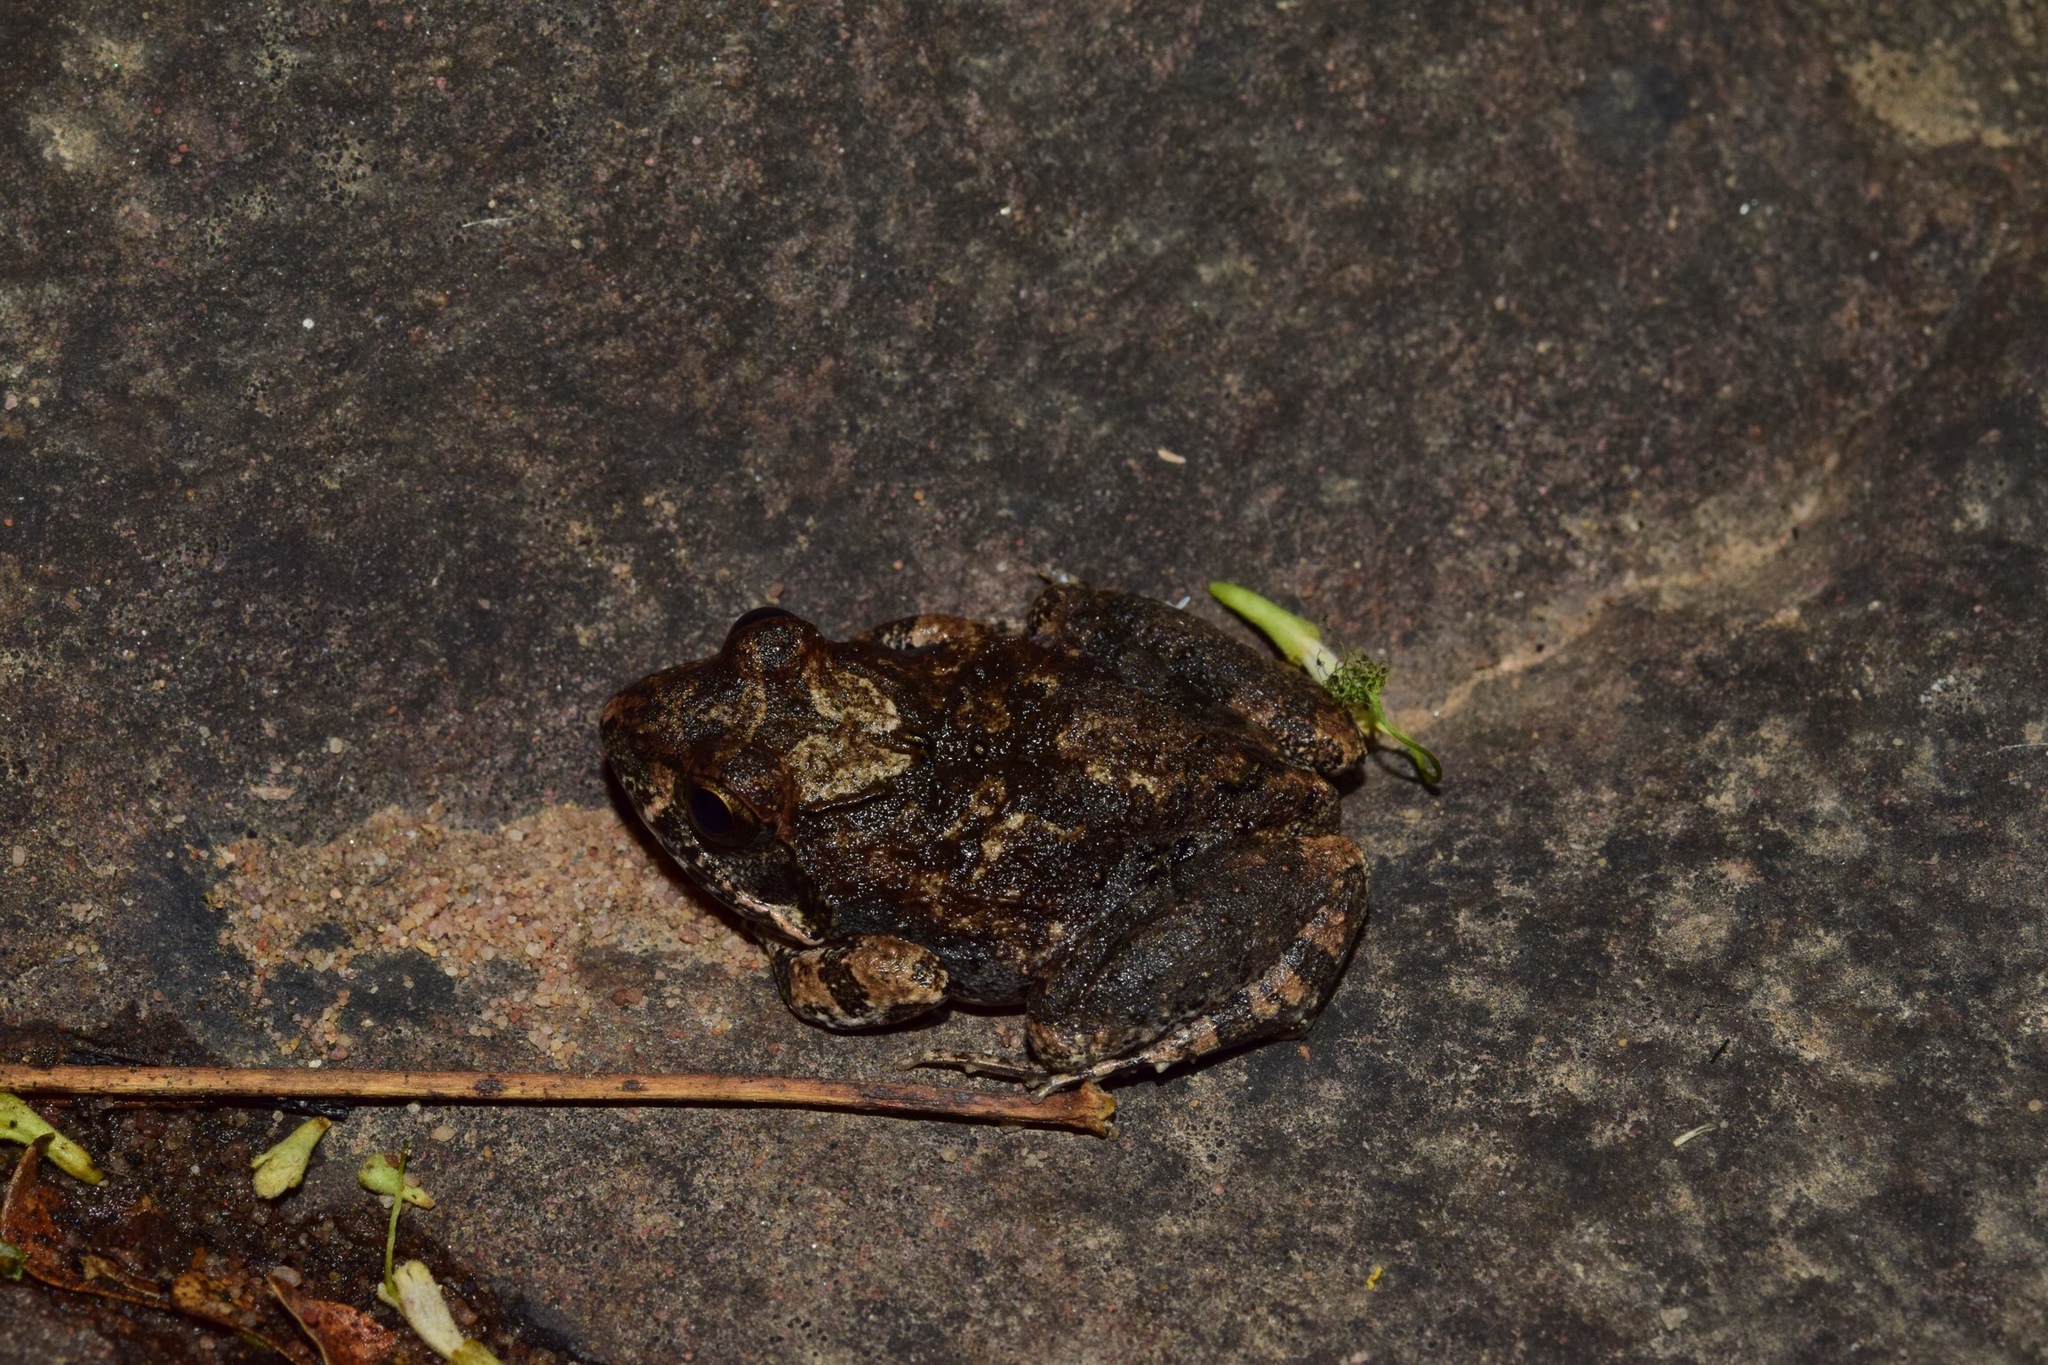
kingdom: Animalia
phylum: Chordata
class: Amphibia
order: Anura
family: Pyxicephalidae
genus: Tomopterna
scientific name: Tomopterna natalensis
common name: Natal sand frog
